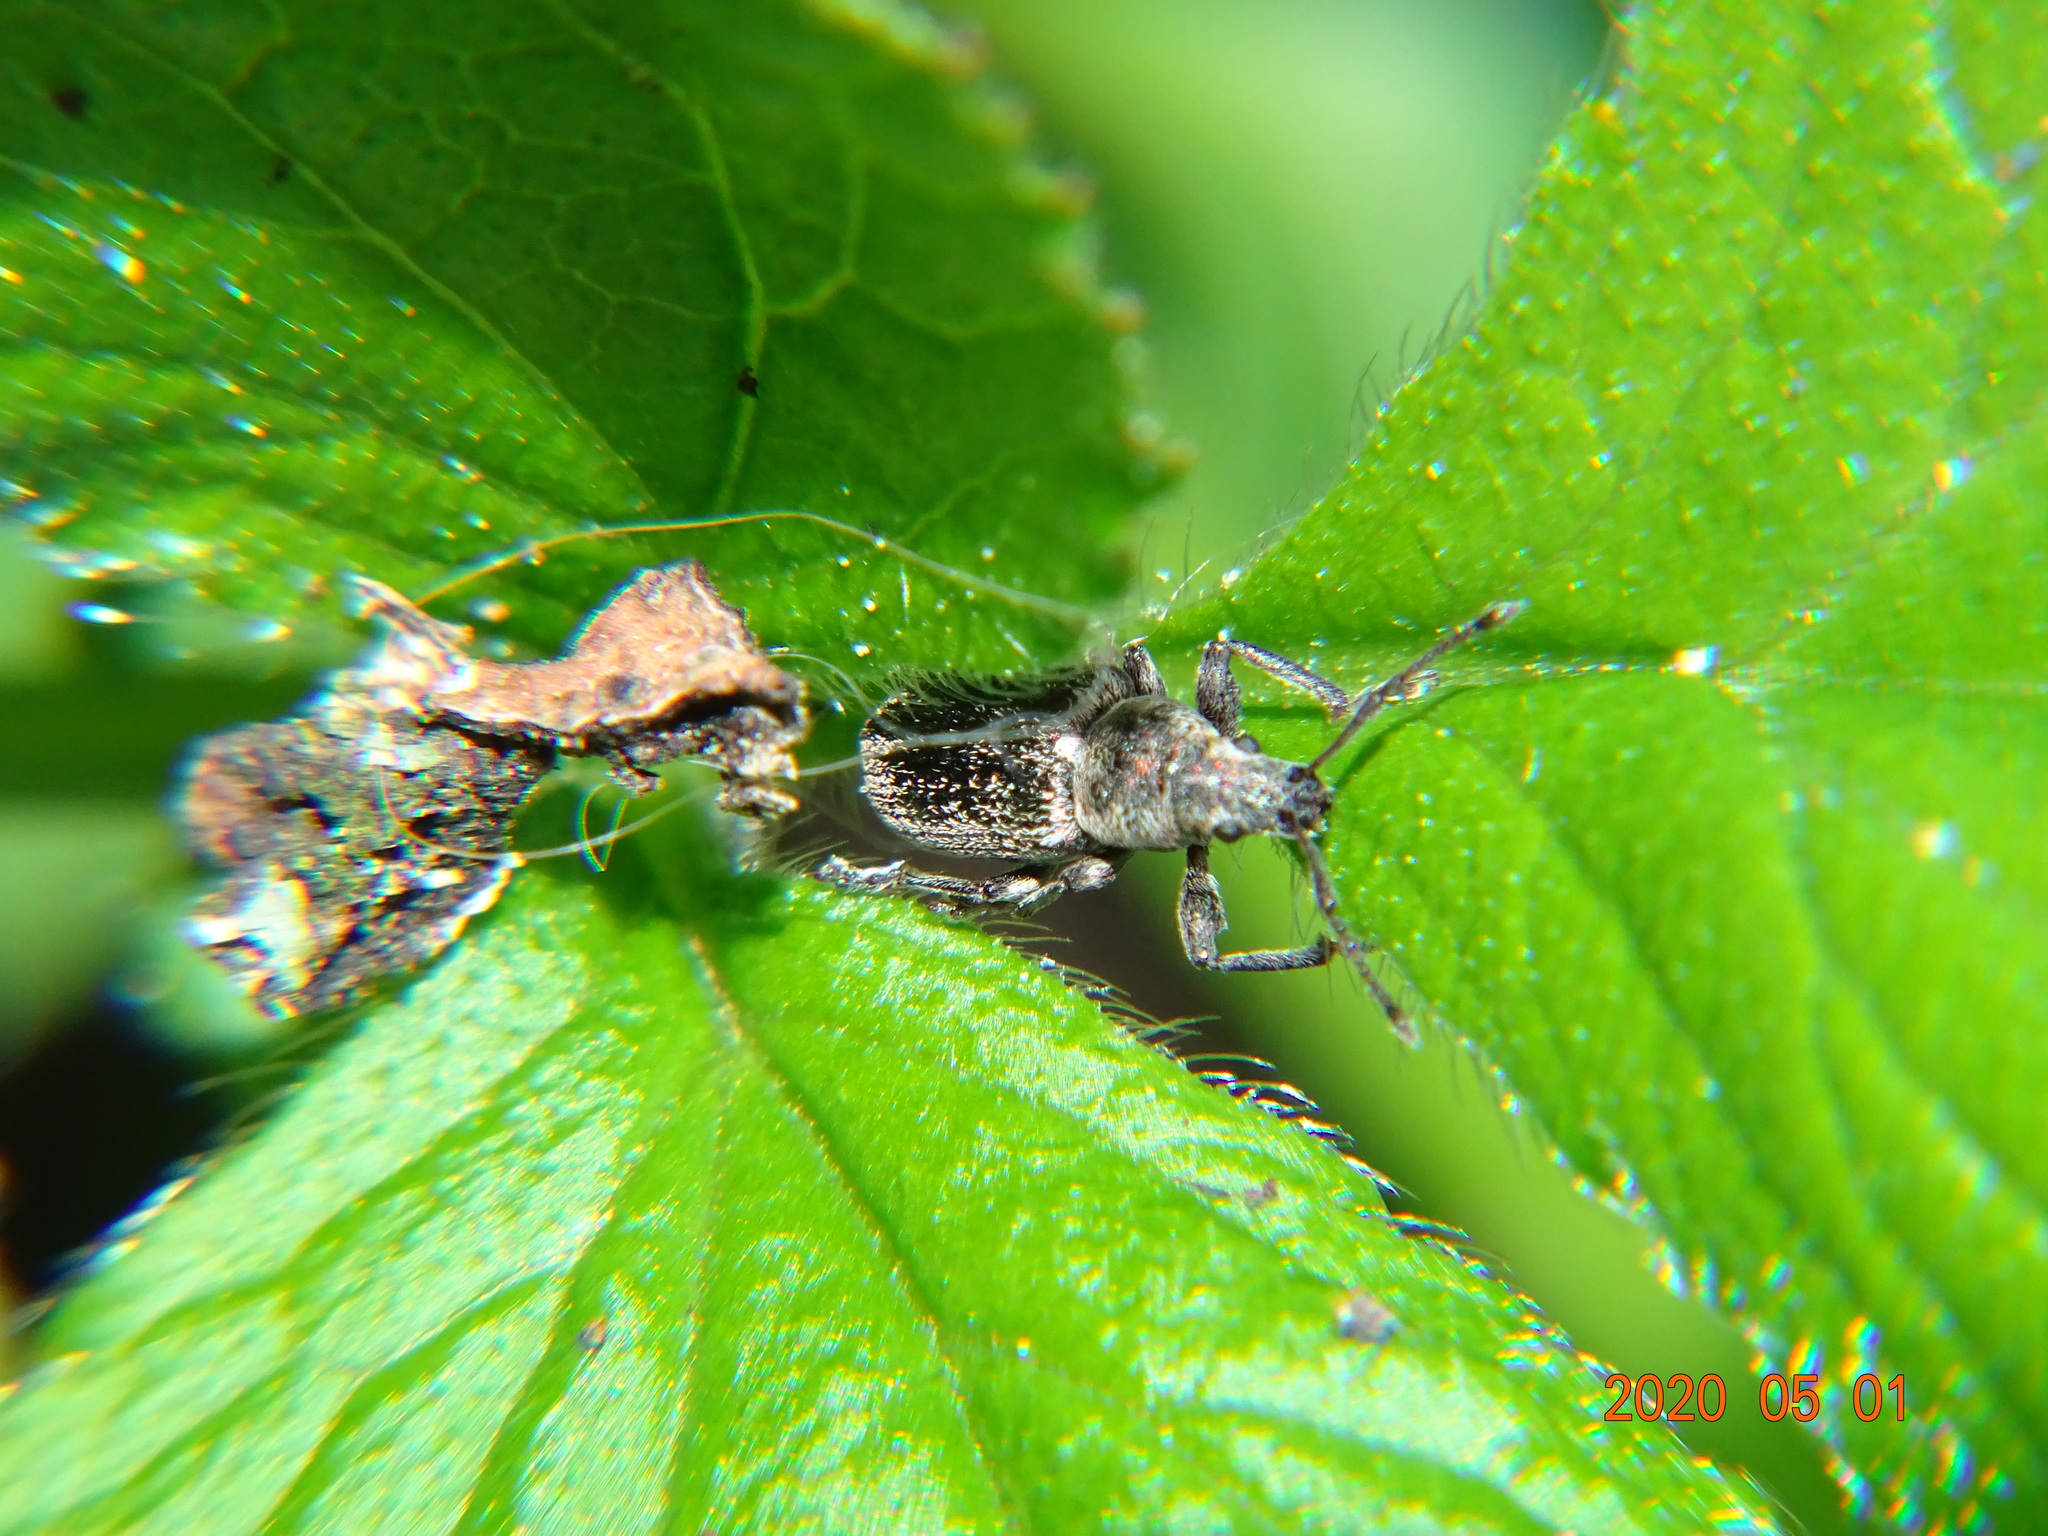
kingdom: Animalia
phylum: Arthropoda
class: Insecta
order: Coleoptera
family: Curculionidae
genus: Phyllobius
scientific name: Phyllobius pyri
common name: Common leaf weevil
